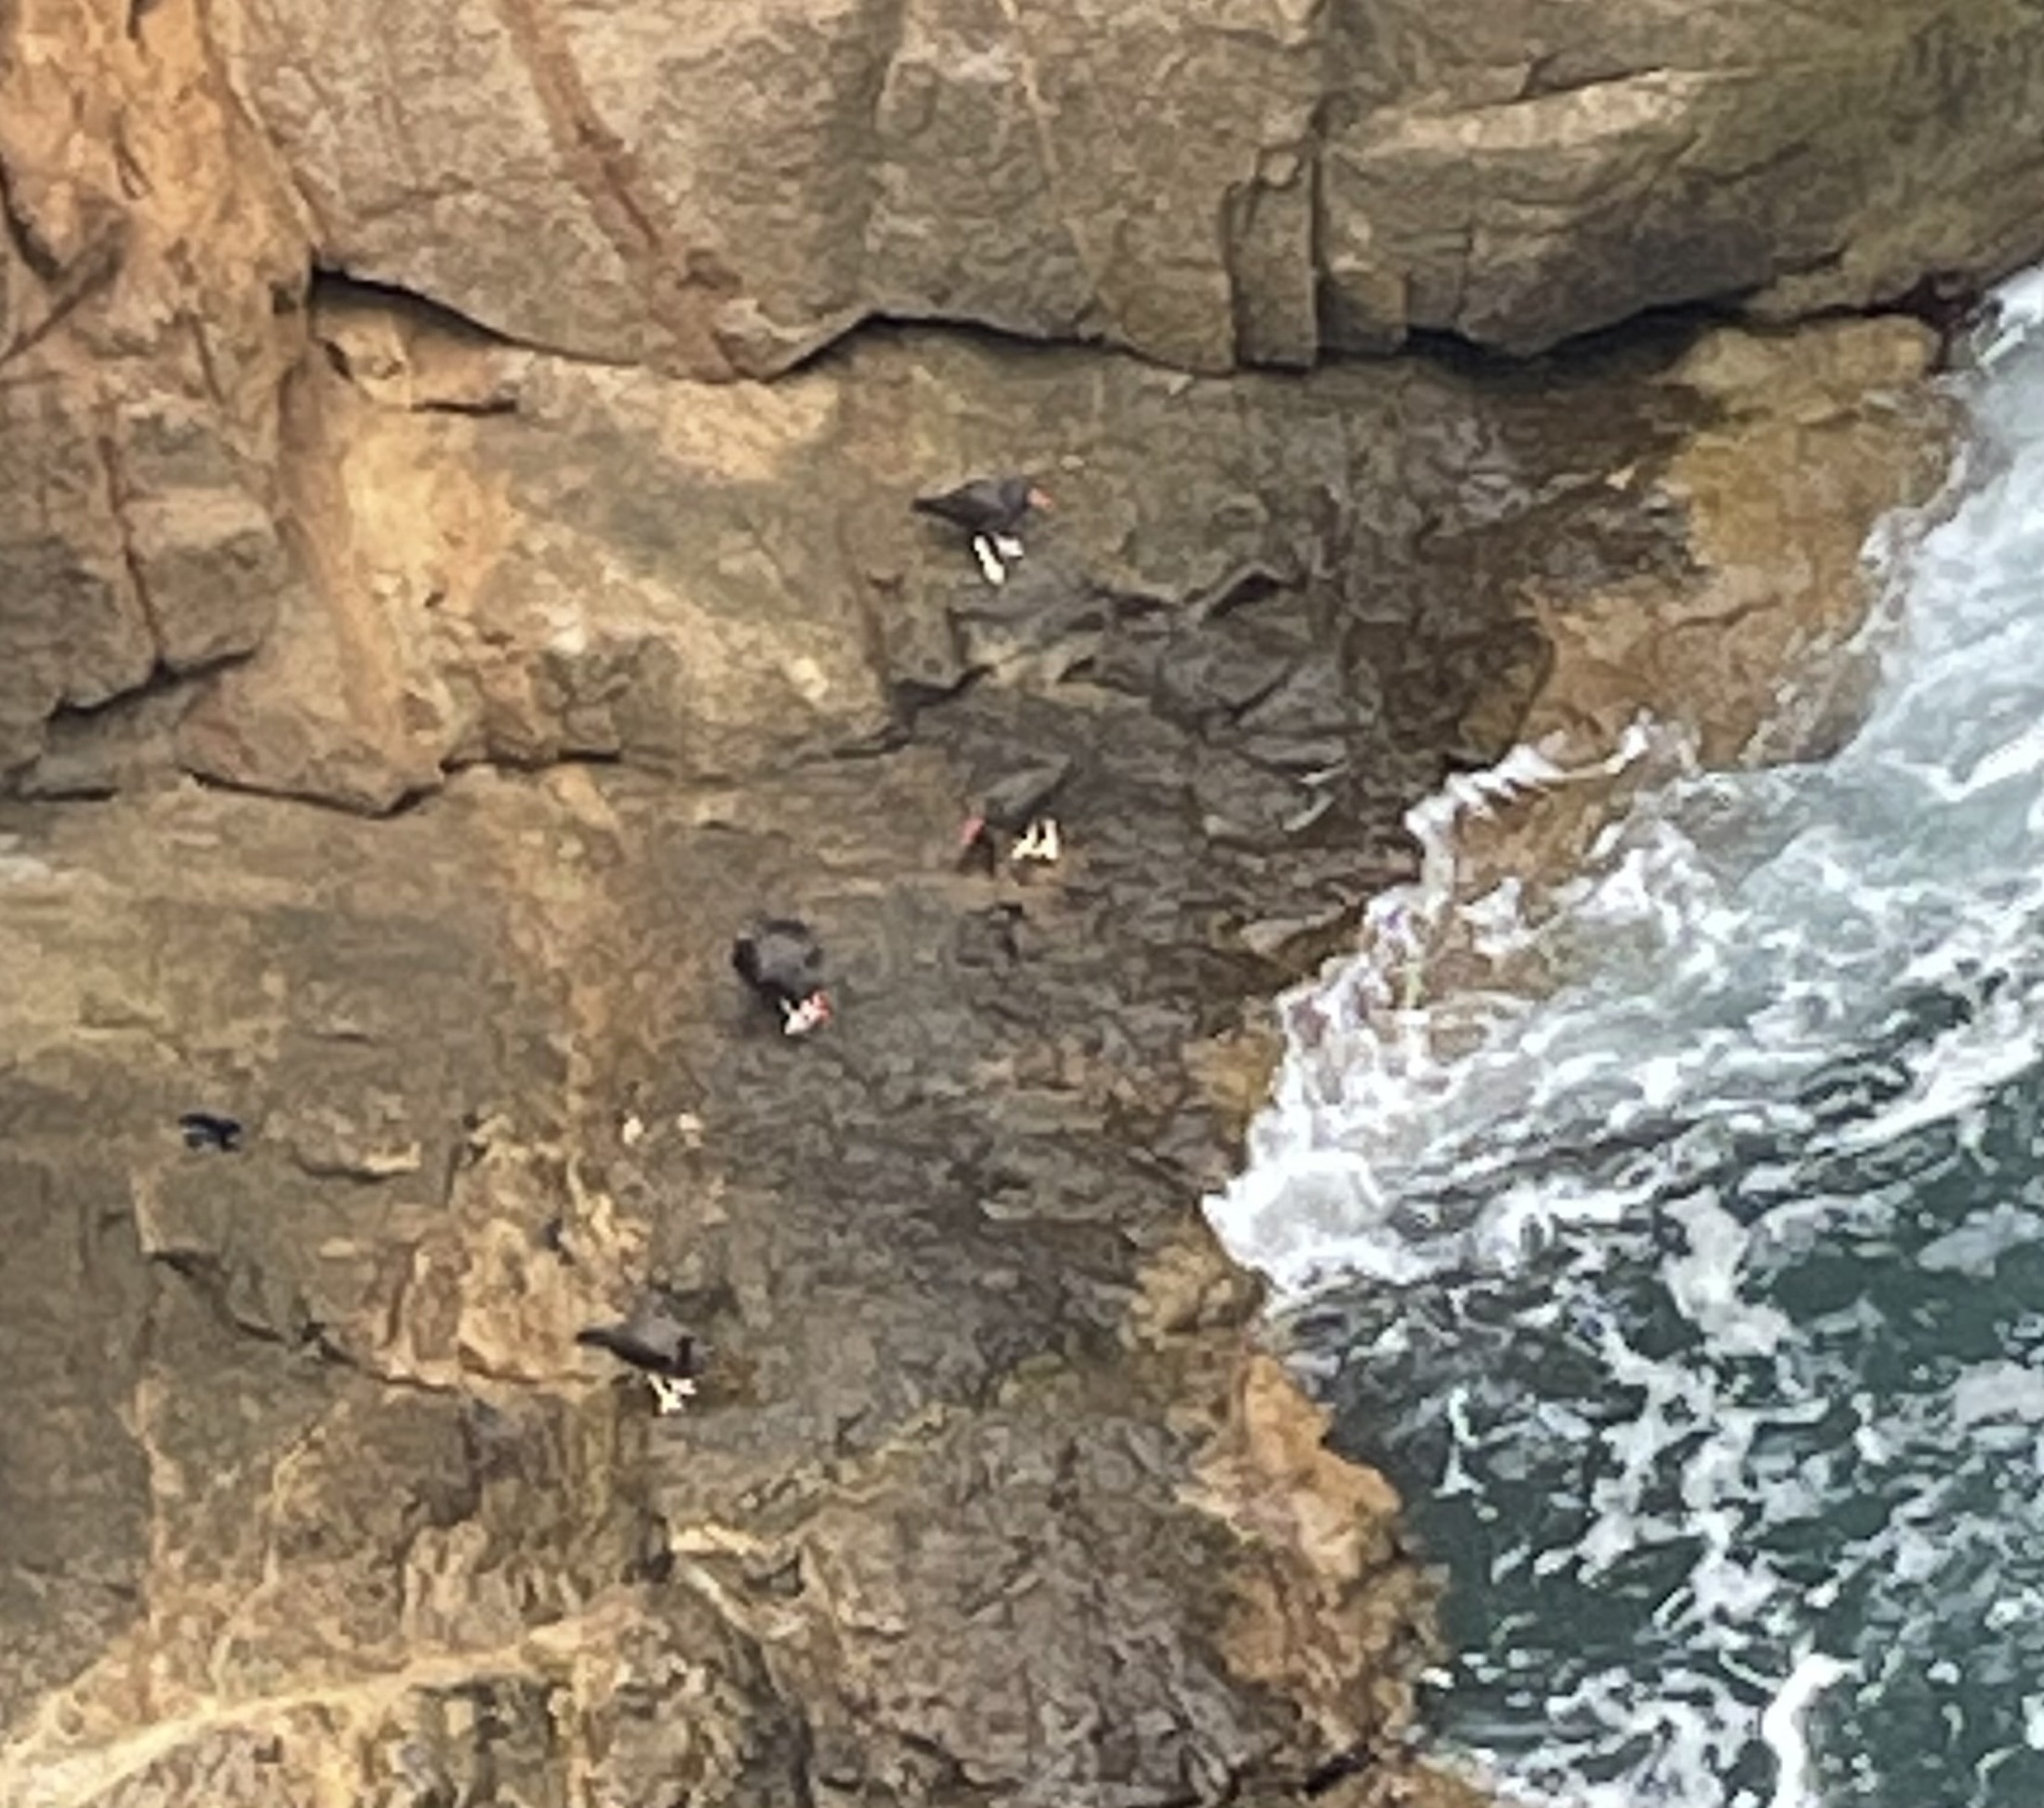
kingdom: Animalia
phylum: Chordata
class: Aves
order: Charadriiformes
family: Haematopodidae
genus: Haematopus
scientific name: Haematopus bachmani
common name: Black oystercatcher
